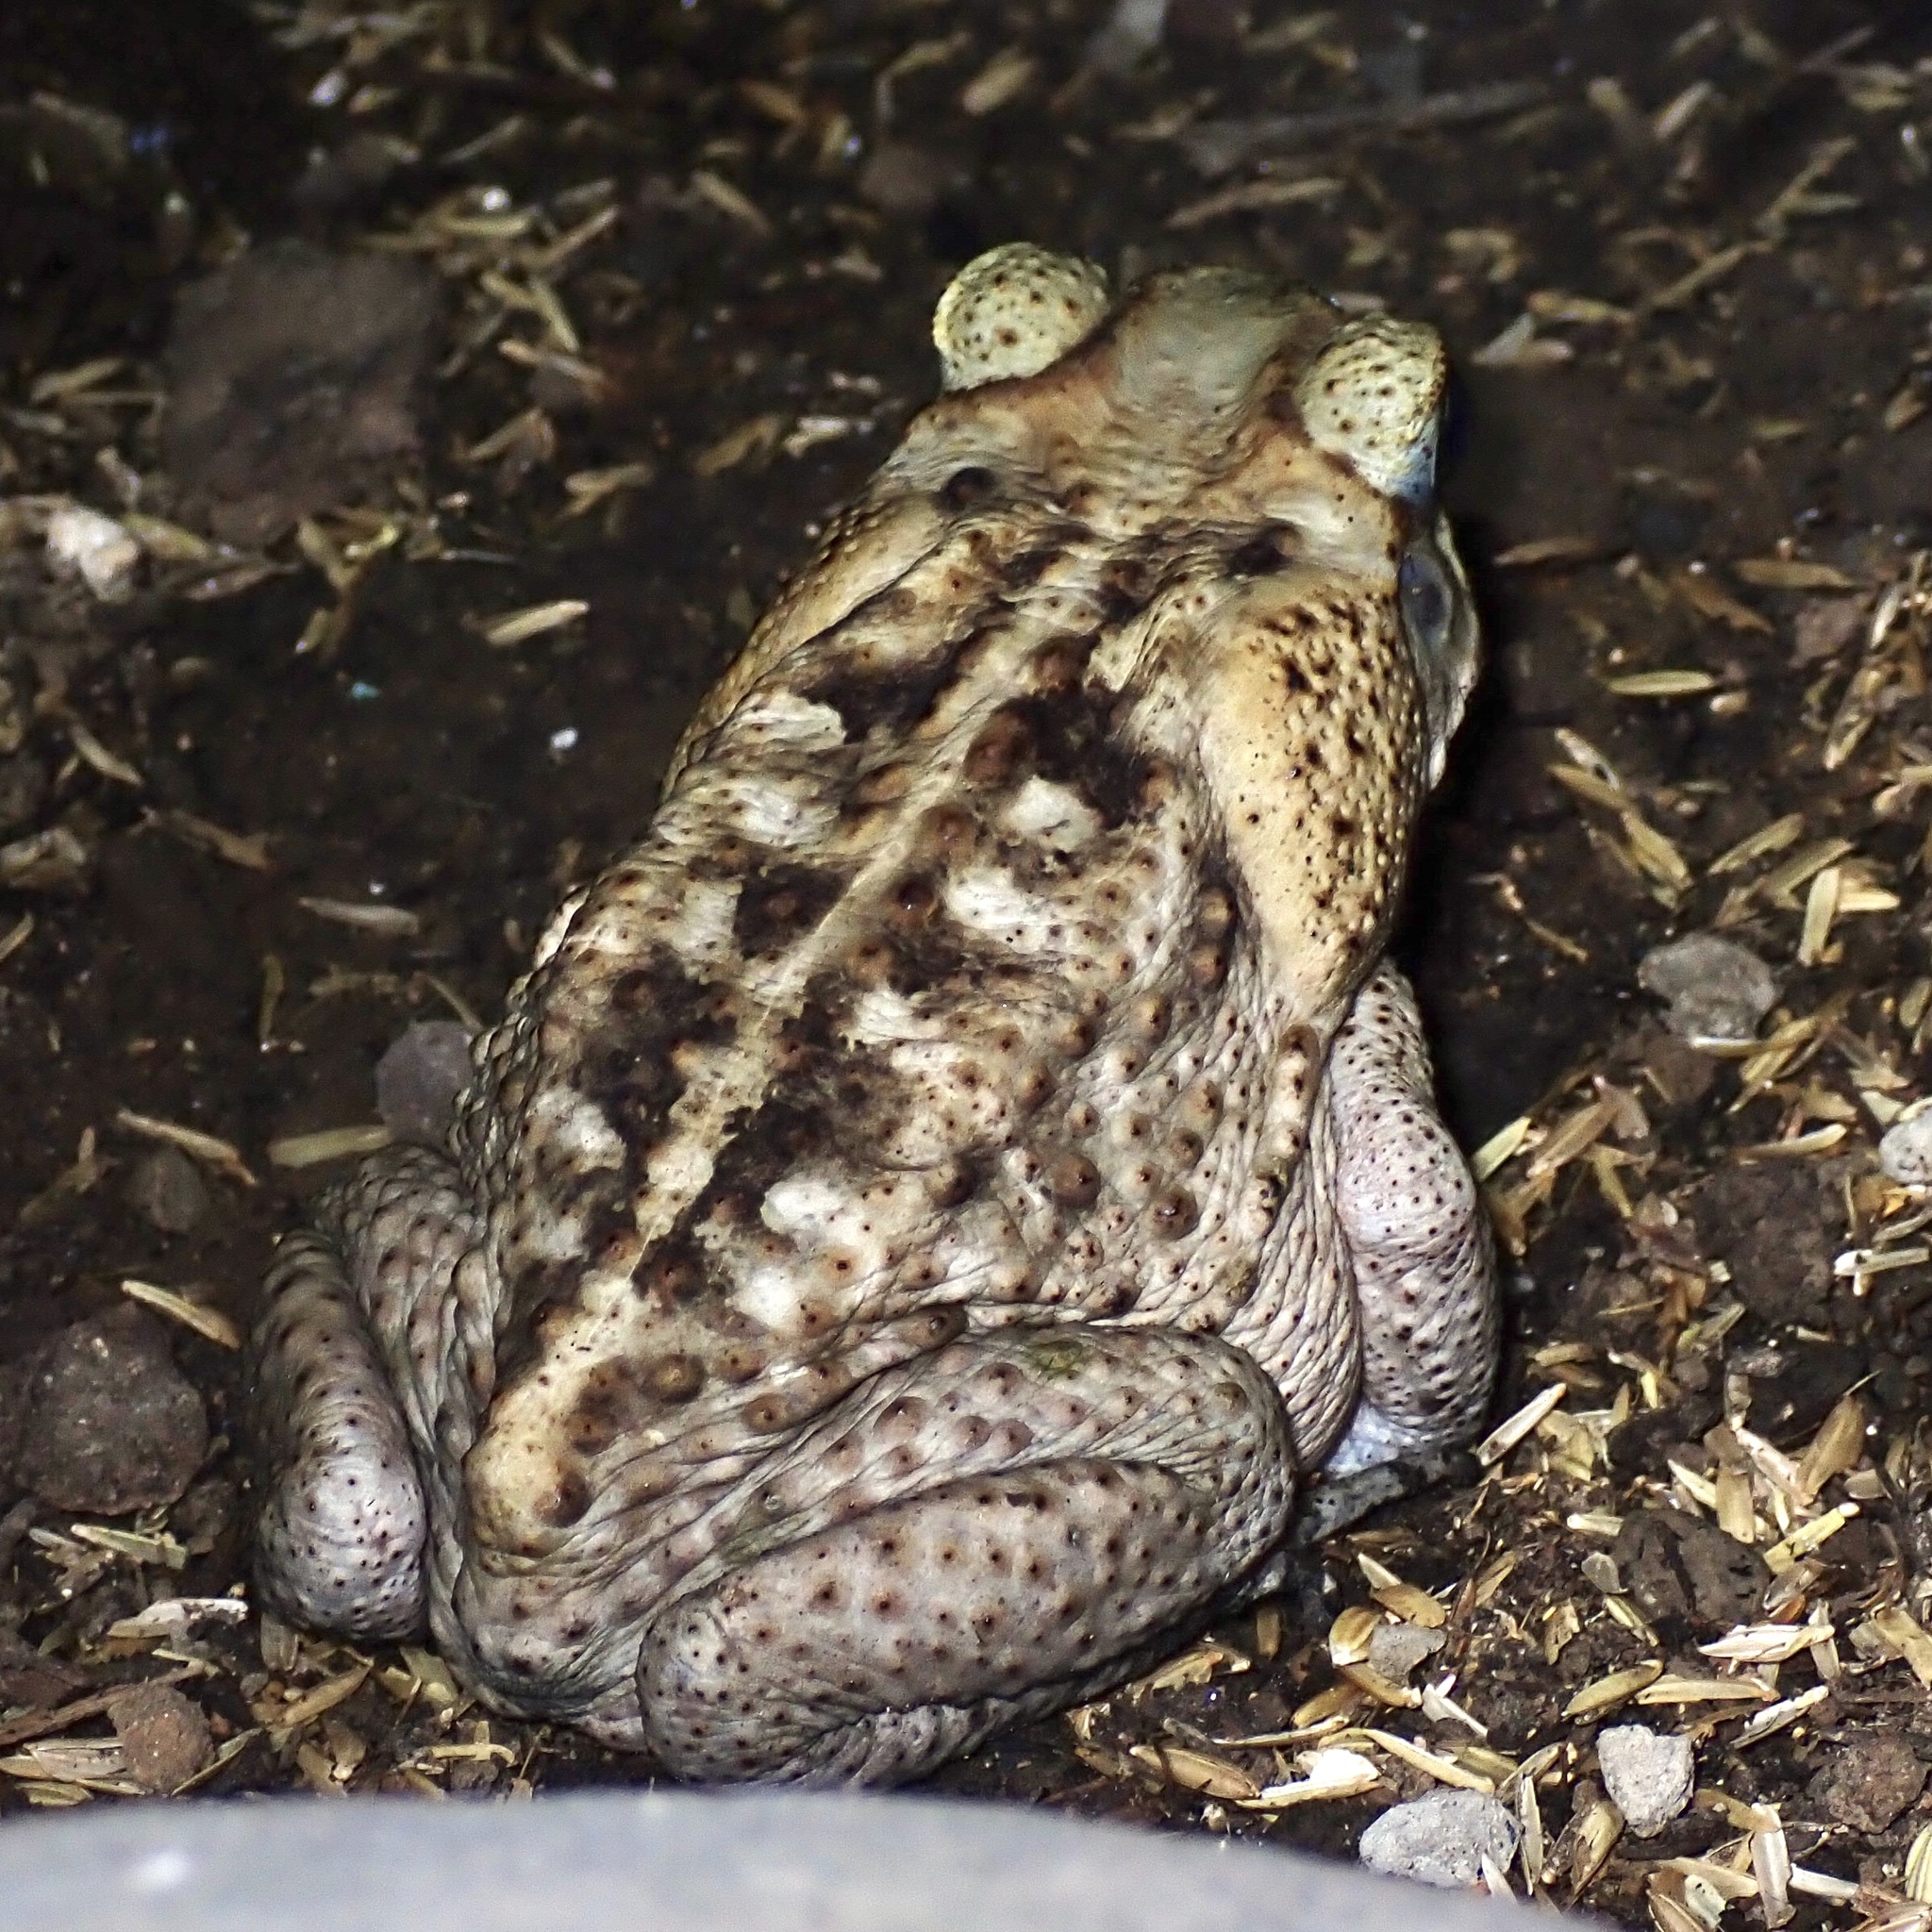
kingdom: Animalia
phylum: Chordata
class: Amphibia
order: Anura
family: Bufonidae
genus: Rhinella
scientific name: Rhinella horribilis
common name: Mesoamerican cane toad
